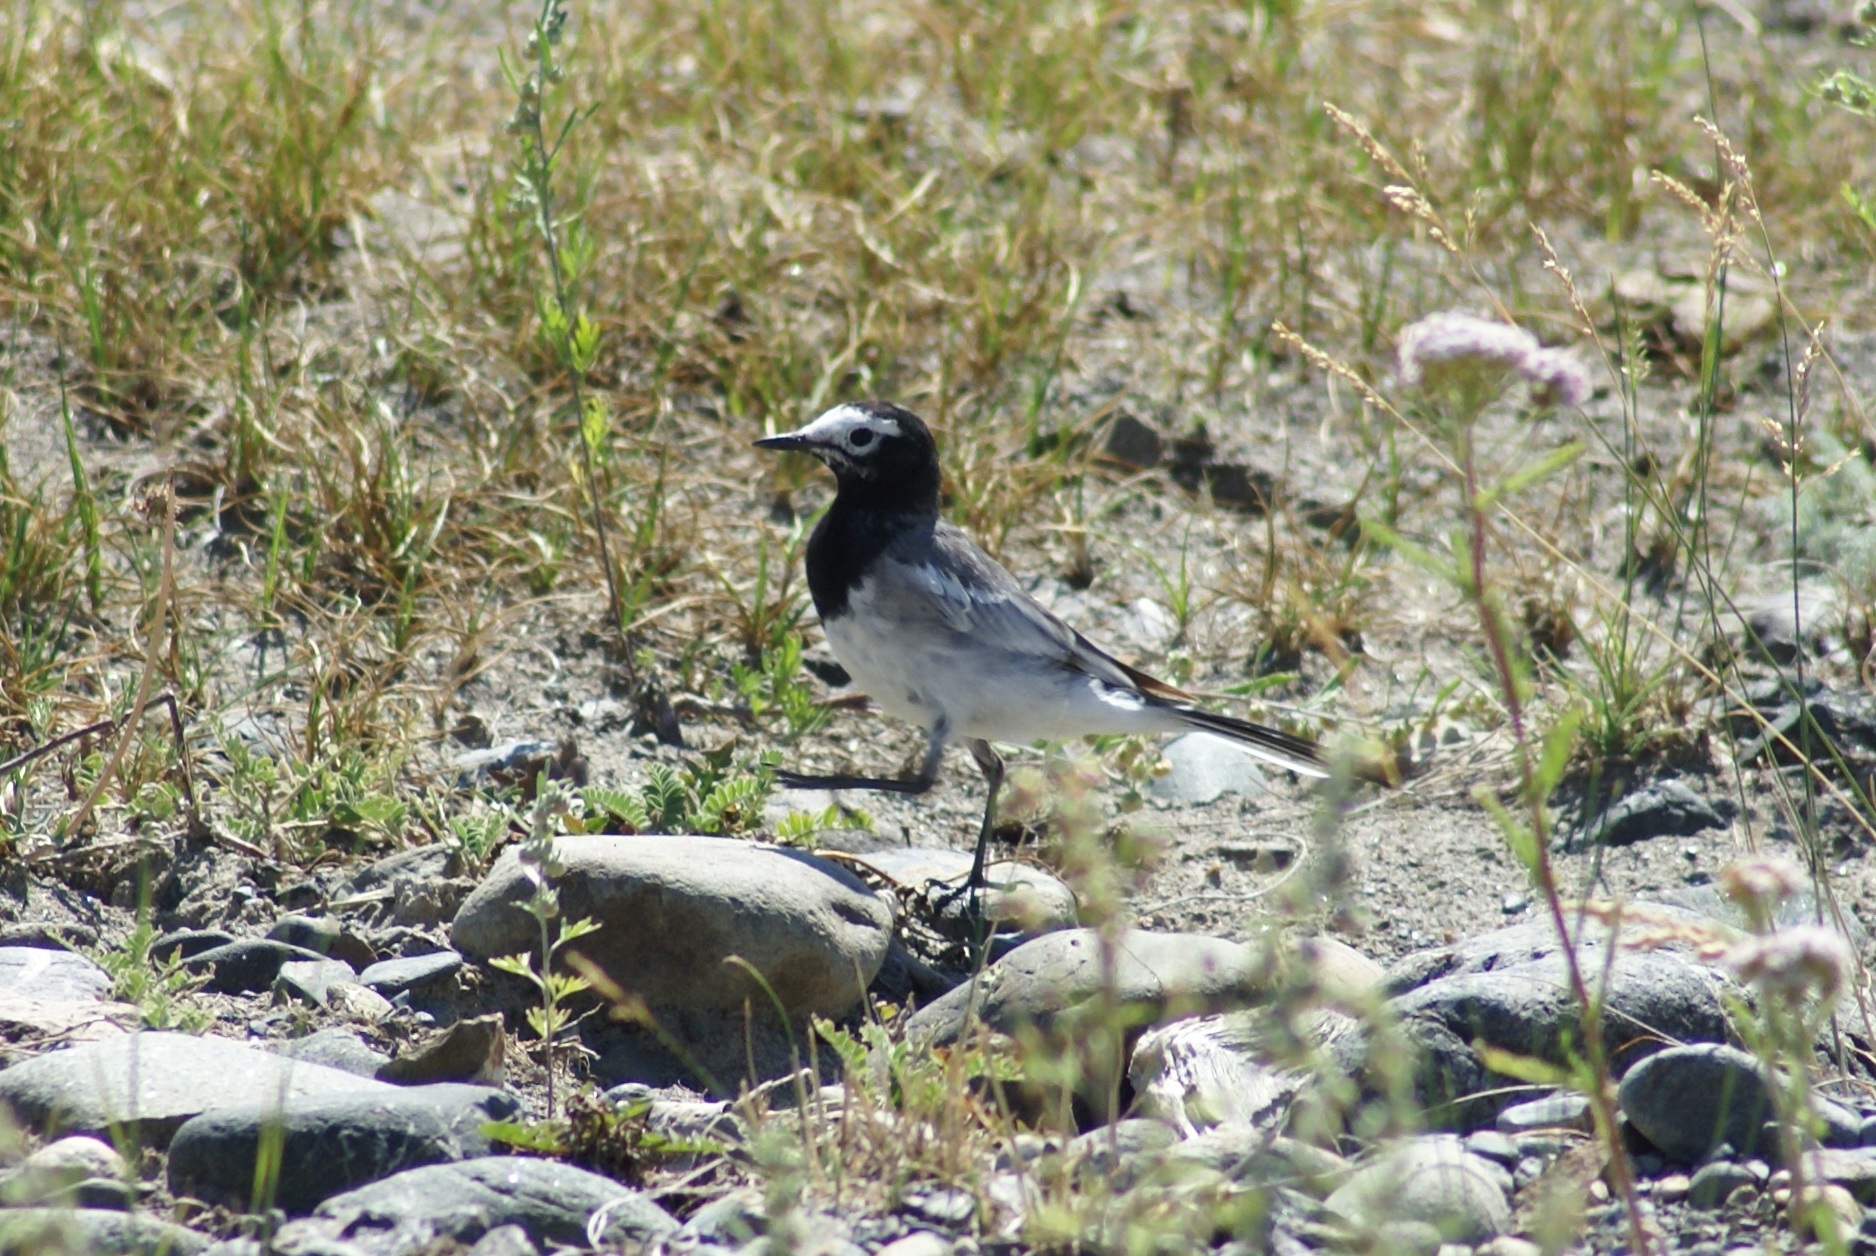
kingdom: Animalia
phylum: Chordata
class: Aves
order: Passeriformes
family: Motacillidae
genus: Motacilla
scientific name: Motacilla alba
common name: White wagtail
